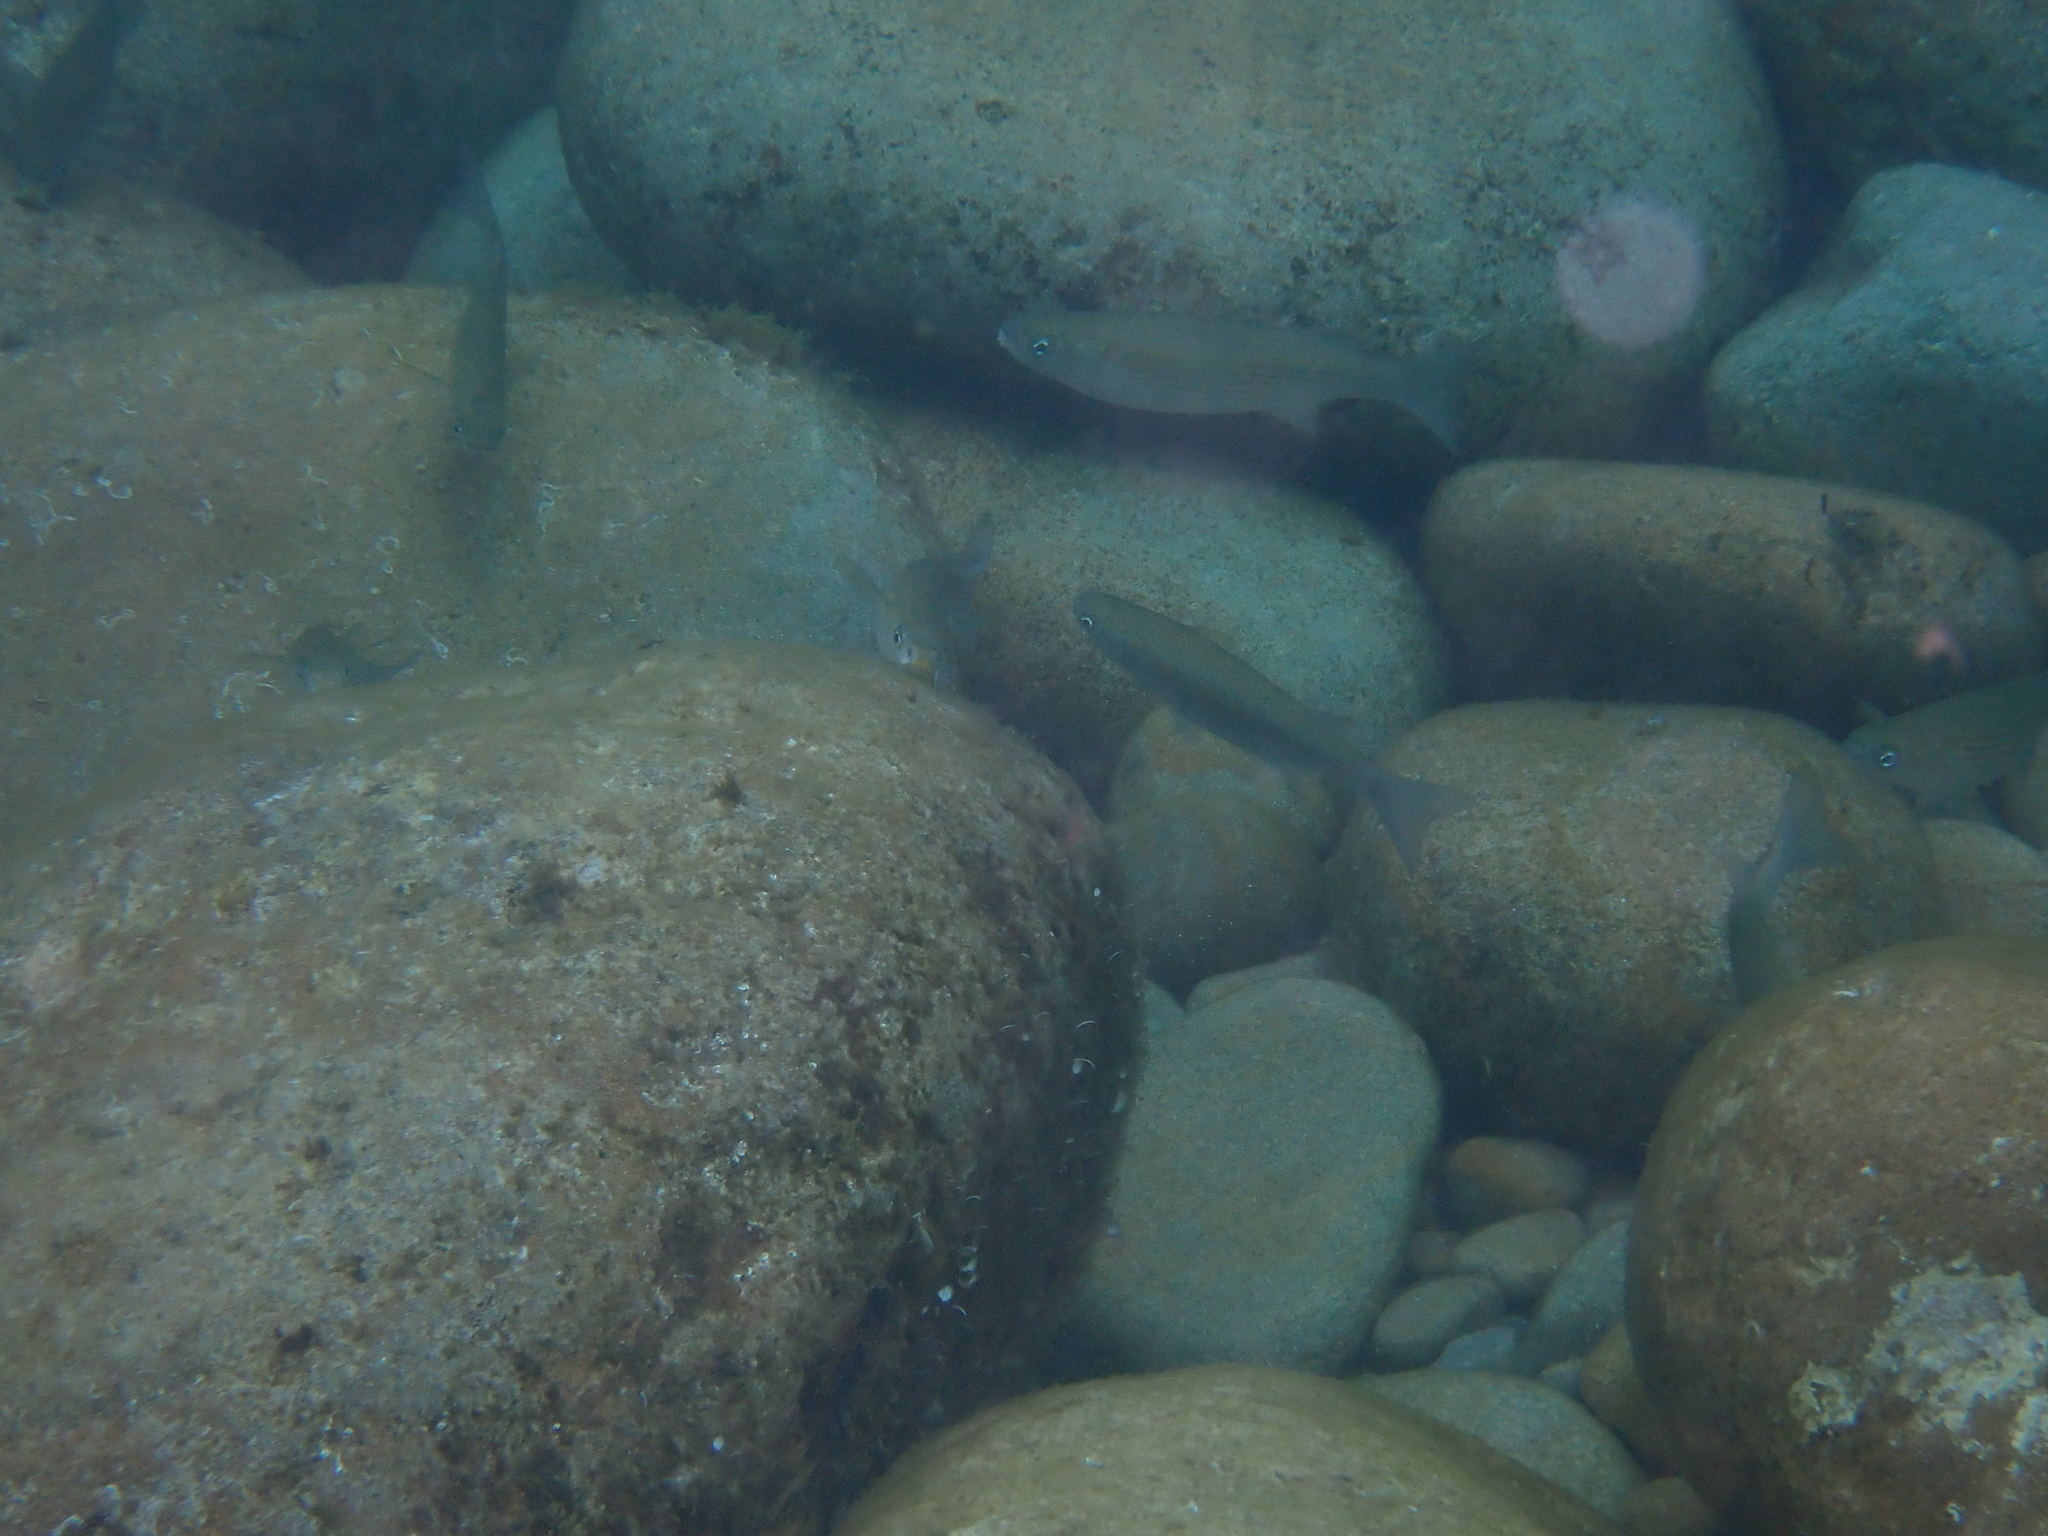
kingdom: Animalia
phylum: Chordata
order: Mugiliformes
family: Mugilidae
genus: Oedalechilus
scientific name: Oedalechilus labeo
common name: Boxlip mullet
